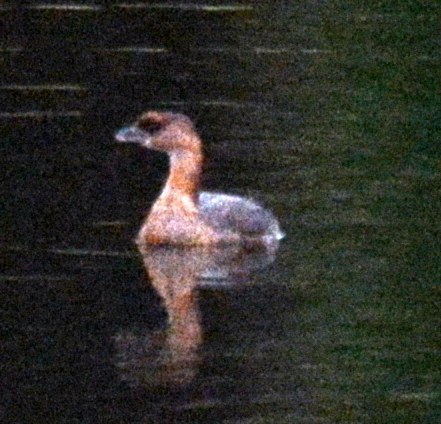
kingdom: Animalia
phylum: Chordata
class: Aves
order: Podicipediformes
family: Podicipedidae
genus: Podilymbus
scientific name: Podilymbus podiceps
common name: Pied-billed grebe
